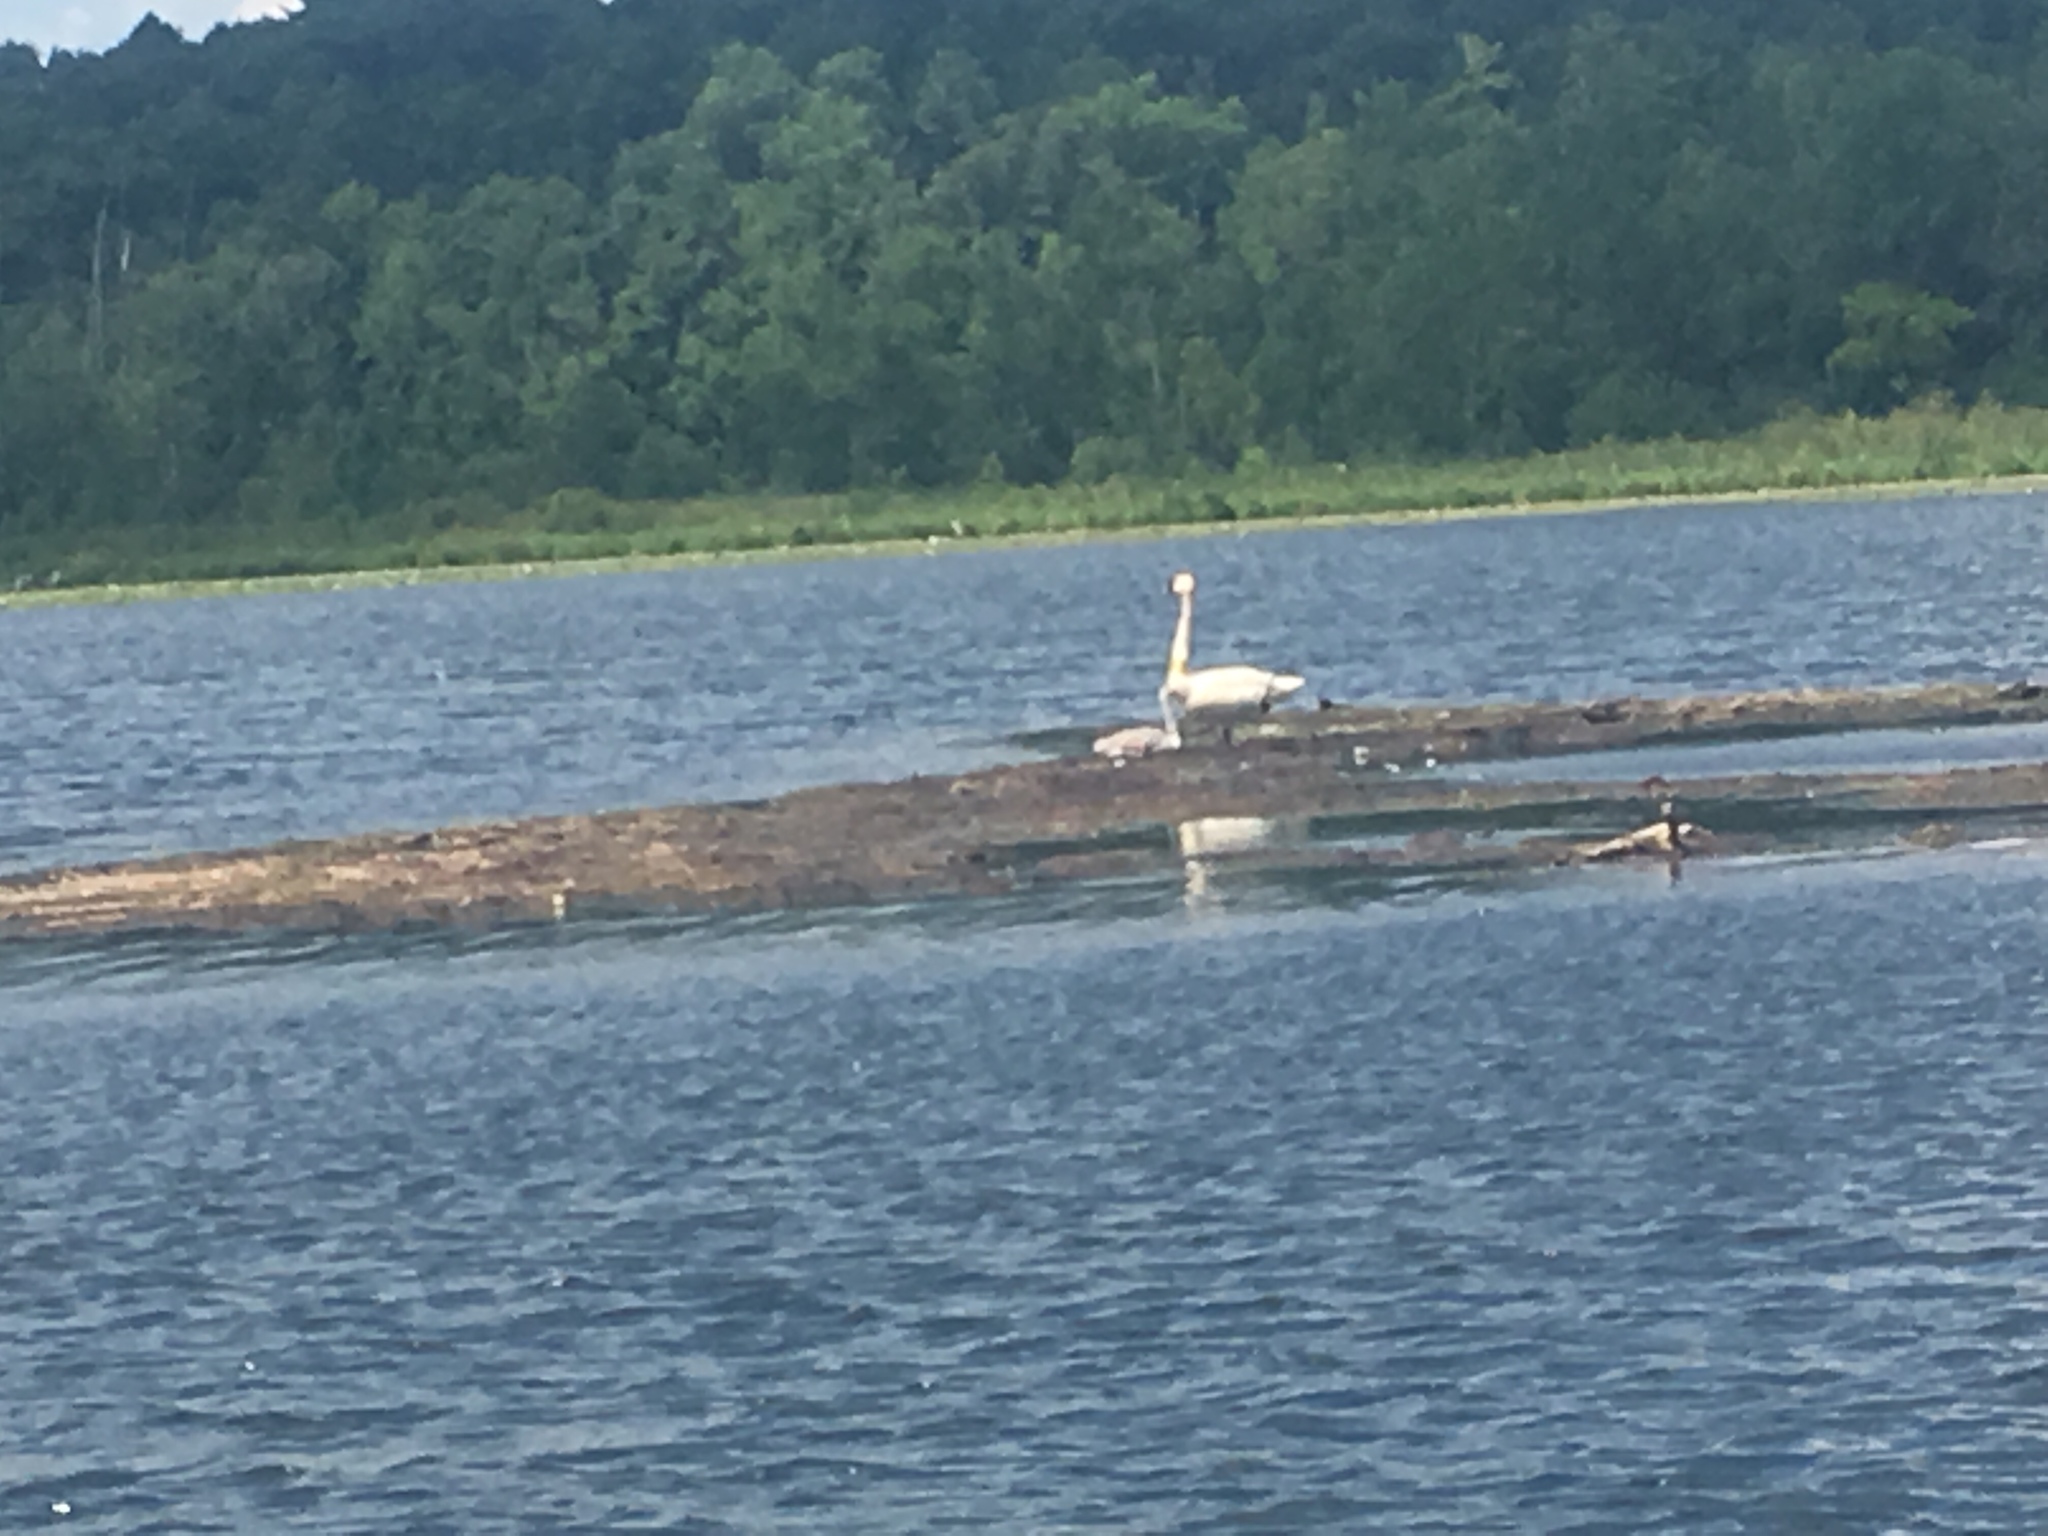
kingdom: Animalia
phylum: Chordata
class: Aves
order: Anseriformes
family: Anatidae
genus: Cygnus
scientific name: Cygnus buccinator
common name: Trumpeter swan
